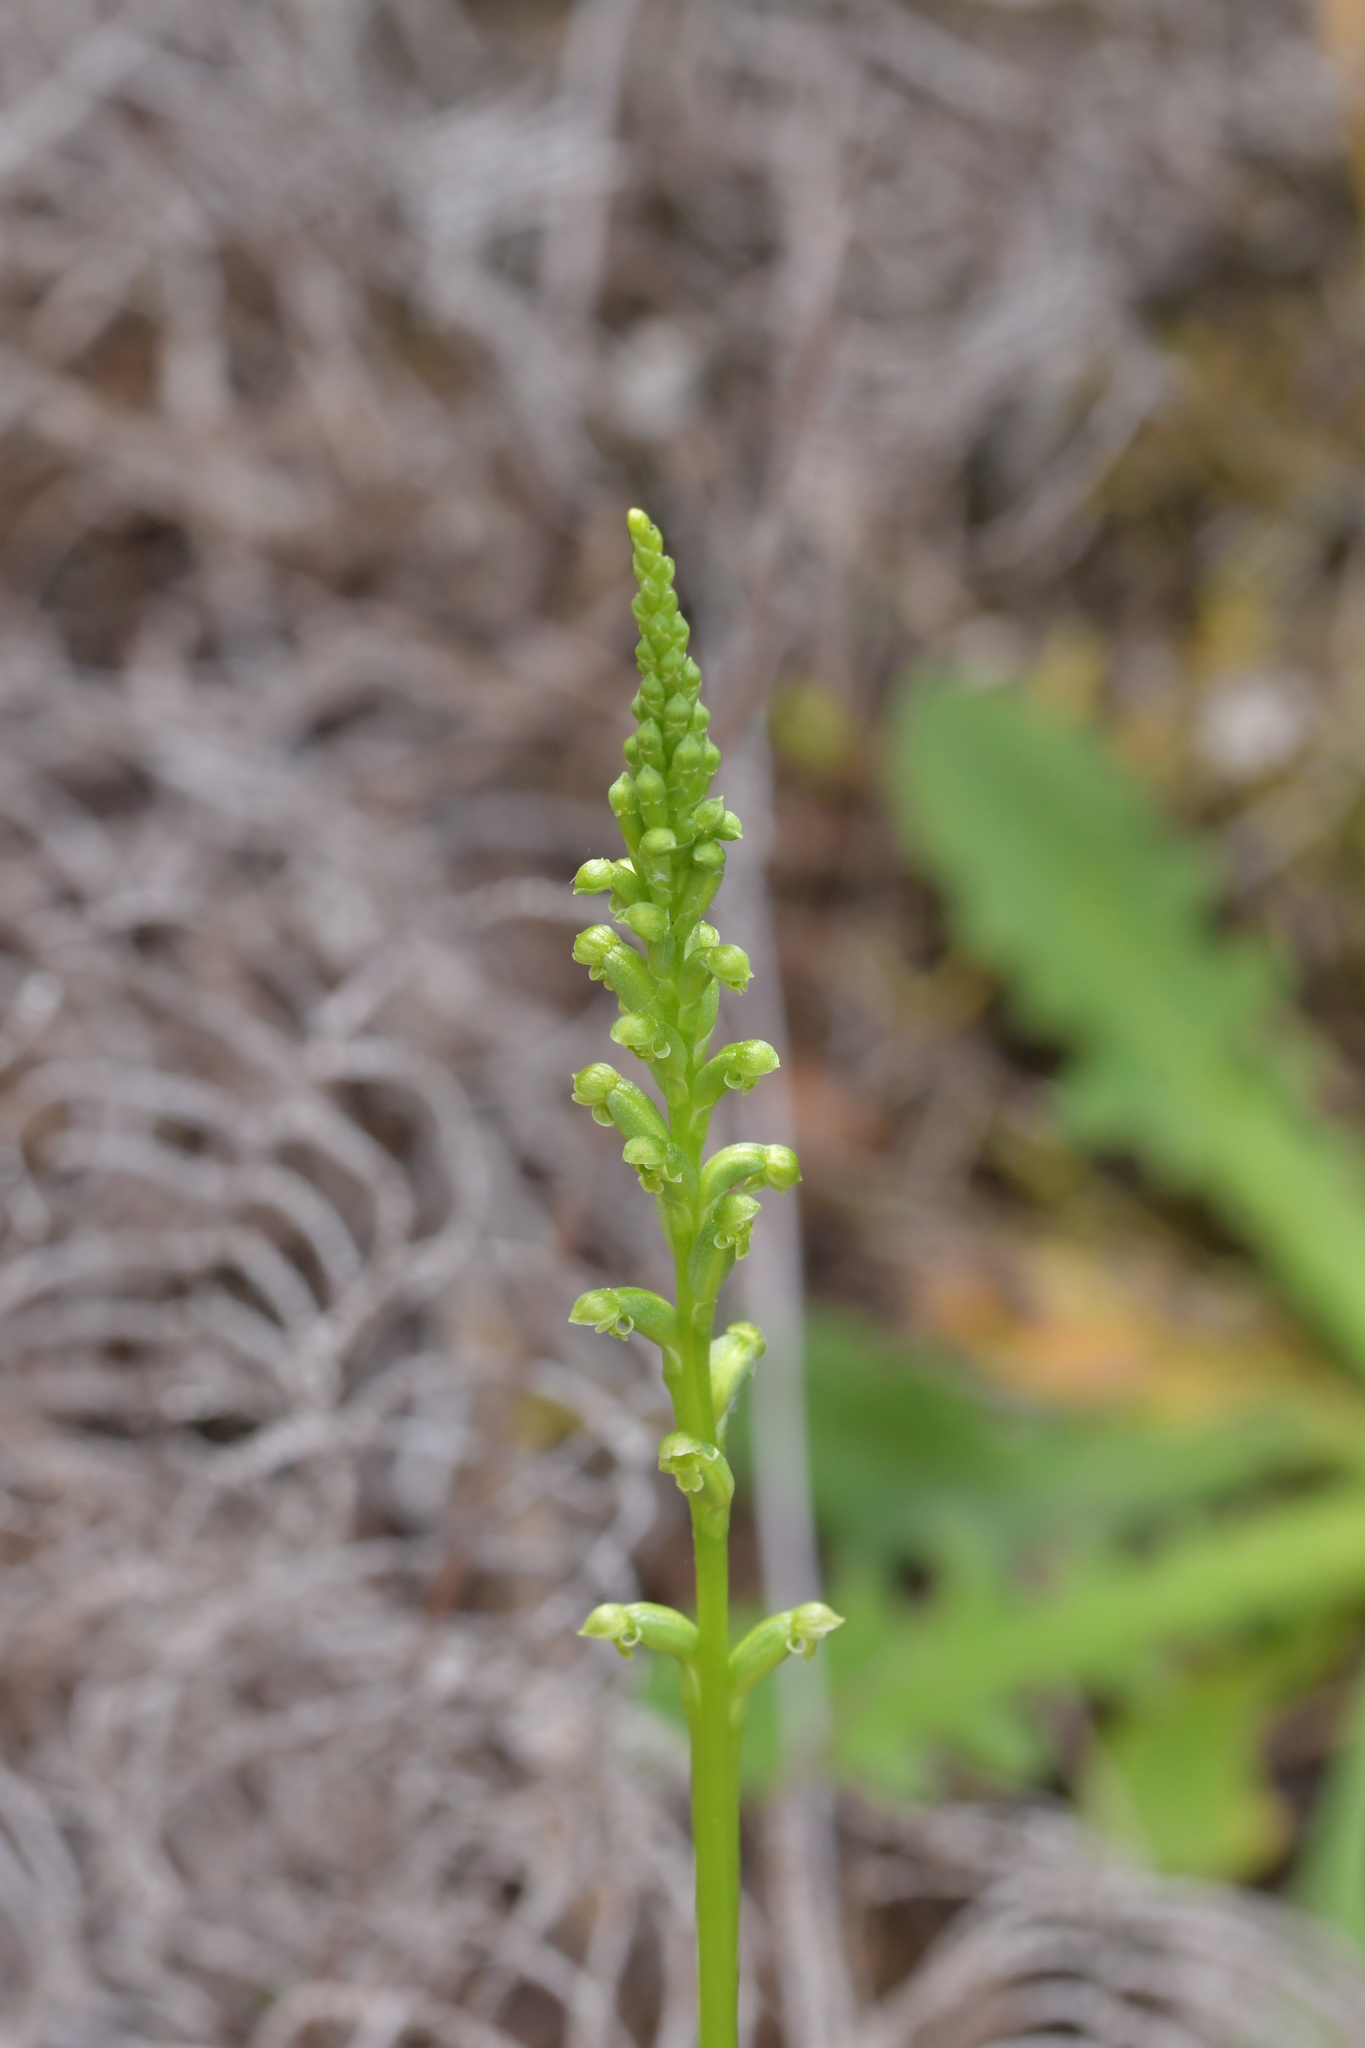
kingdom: Plantae
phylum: Tracheophyta
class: Liliopsida
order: Asparagales
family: Orchidaceae
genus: Microtis
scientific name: Microtis unifolia
